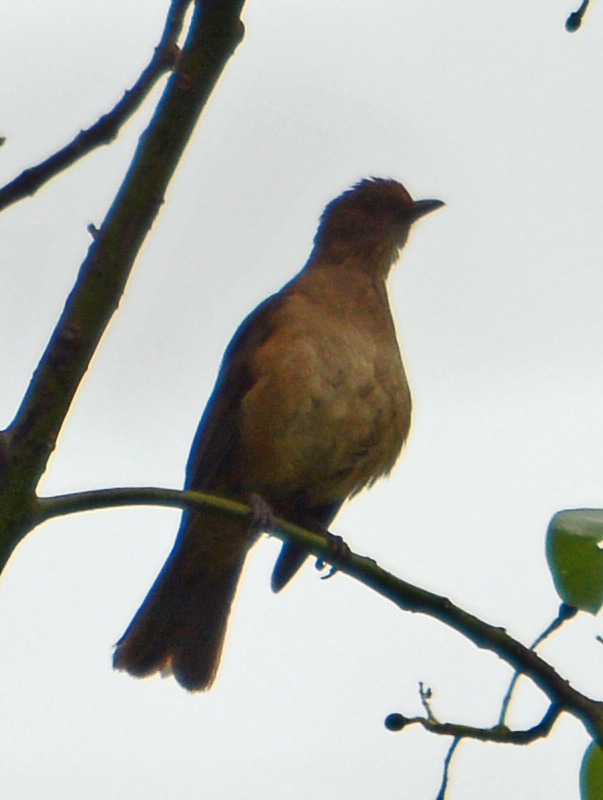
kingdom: Animalia
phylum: Chordata
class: Aves
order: Passeriformes
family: Turdidae
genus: Turdus
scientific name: Turdus grayi
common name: Clay-colored thrush
